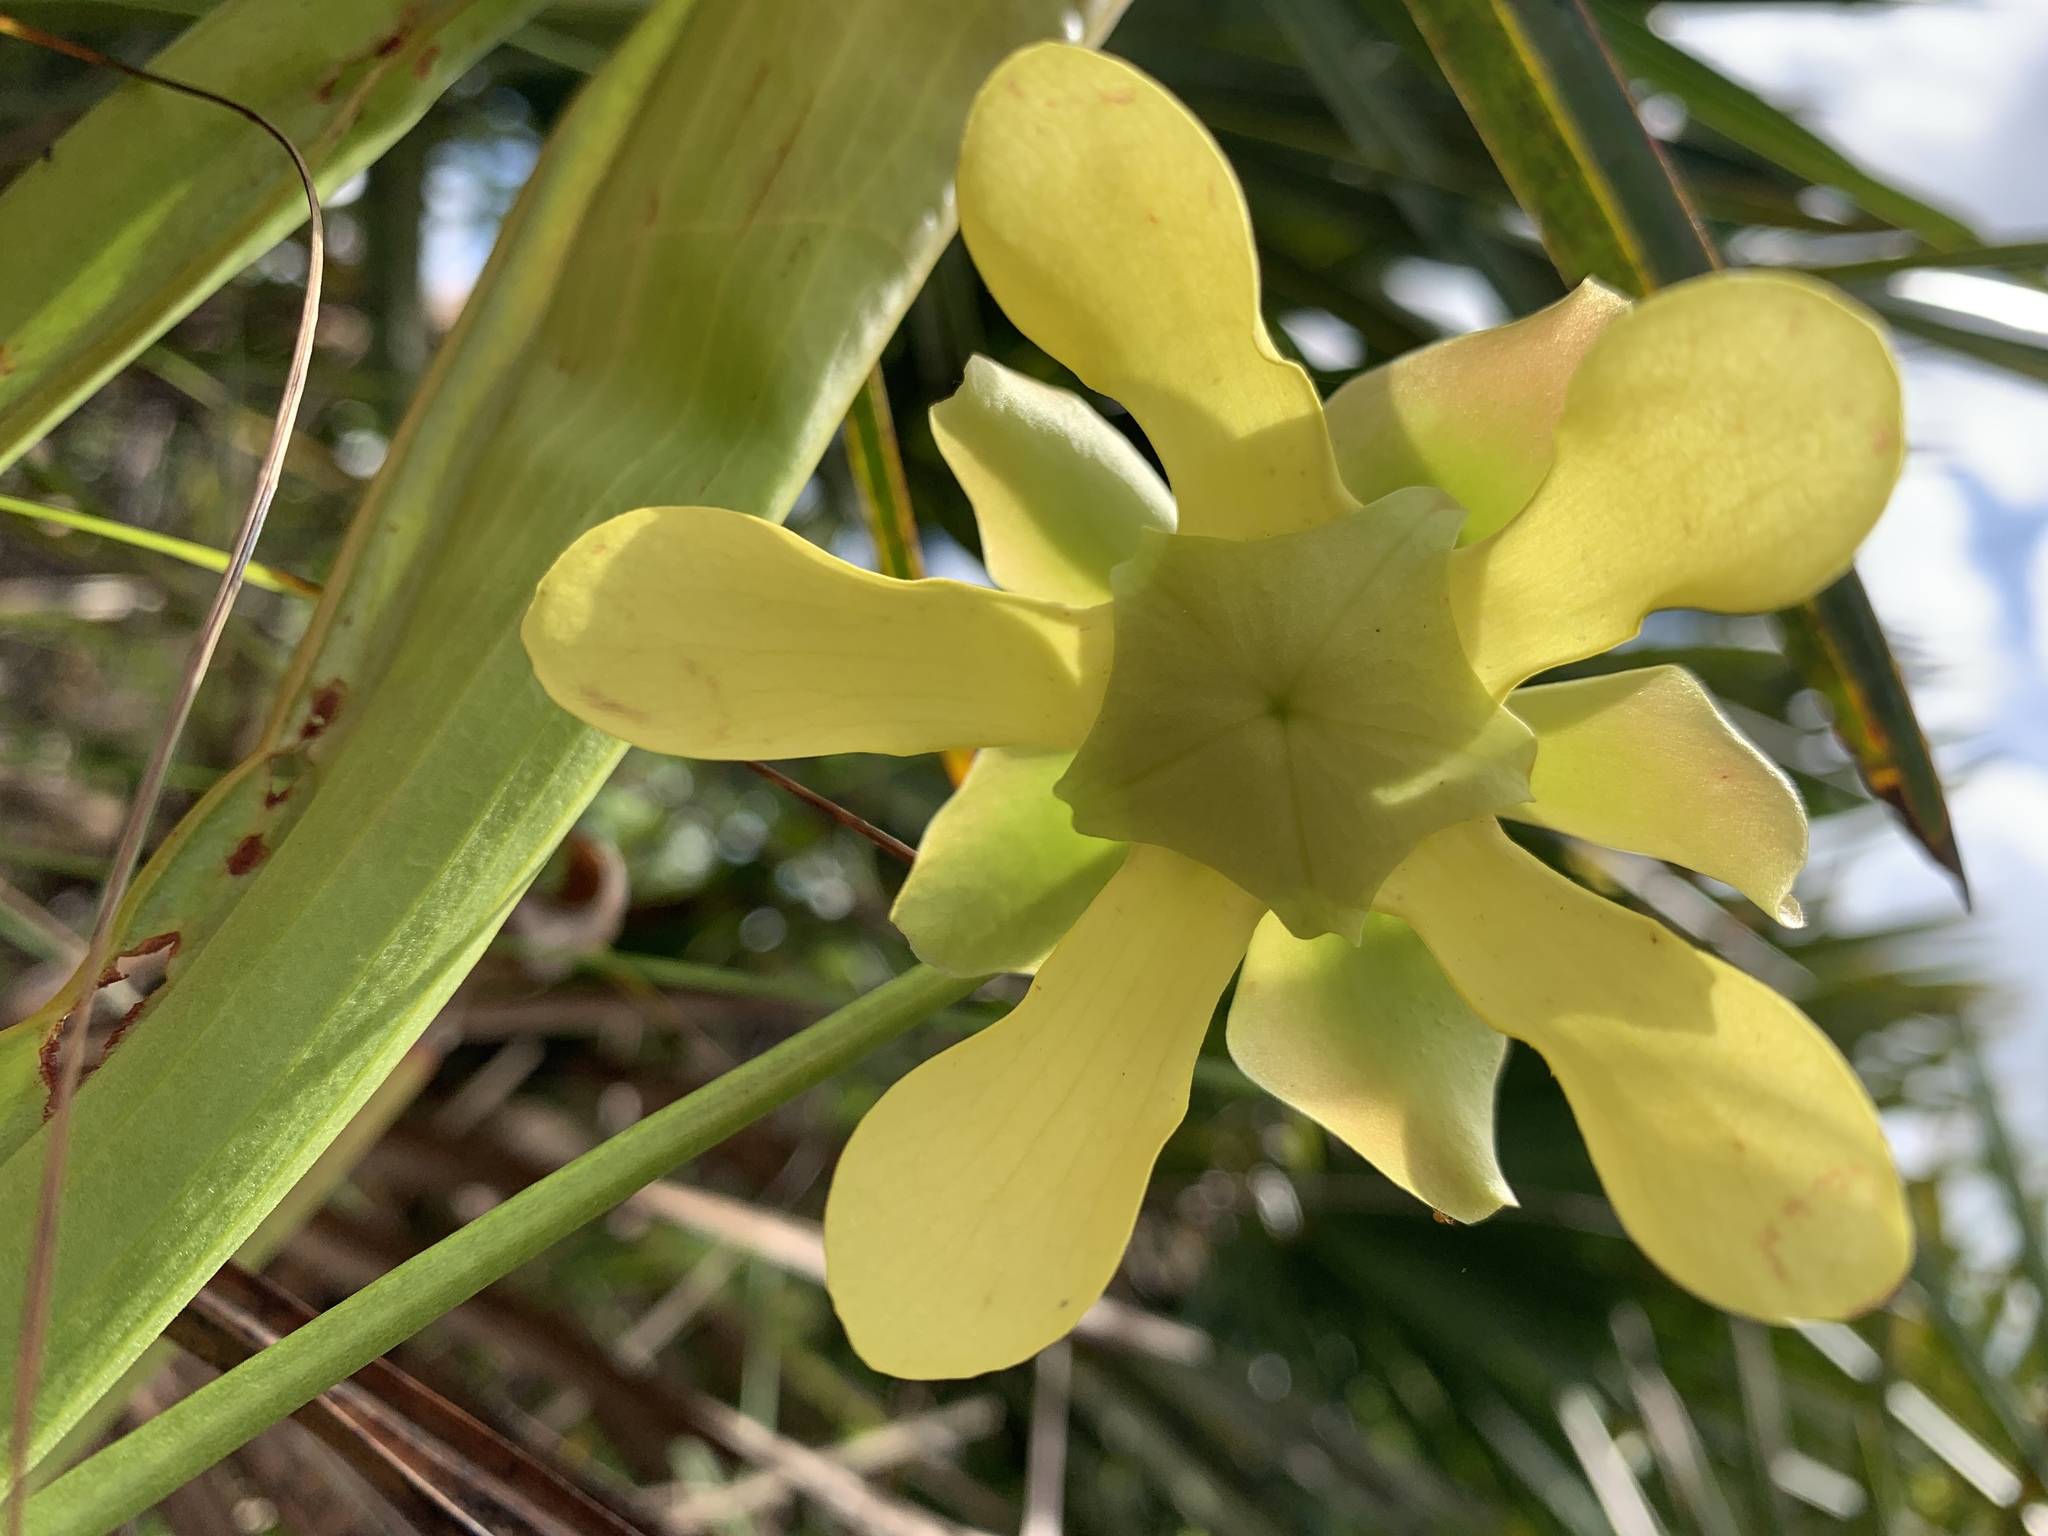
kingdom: Plantae
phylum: Tracheophyta
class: Magnoliopsida
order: Ericales
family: Sarraceniaceae
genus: Sarracenia
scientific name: Sarracenia minor
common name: Rainhat-trumpet
